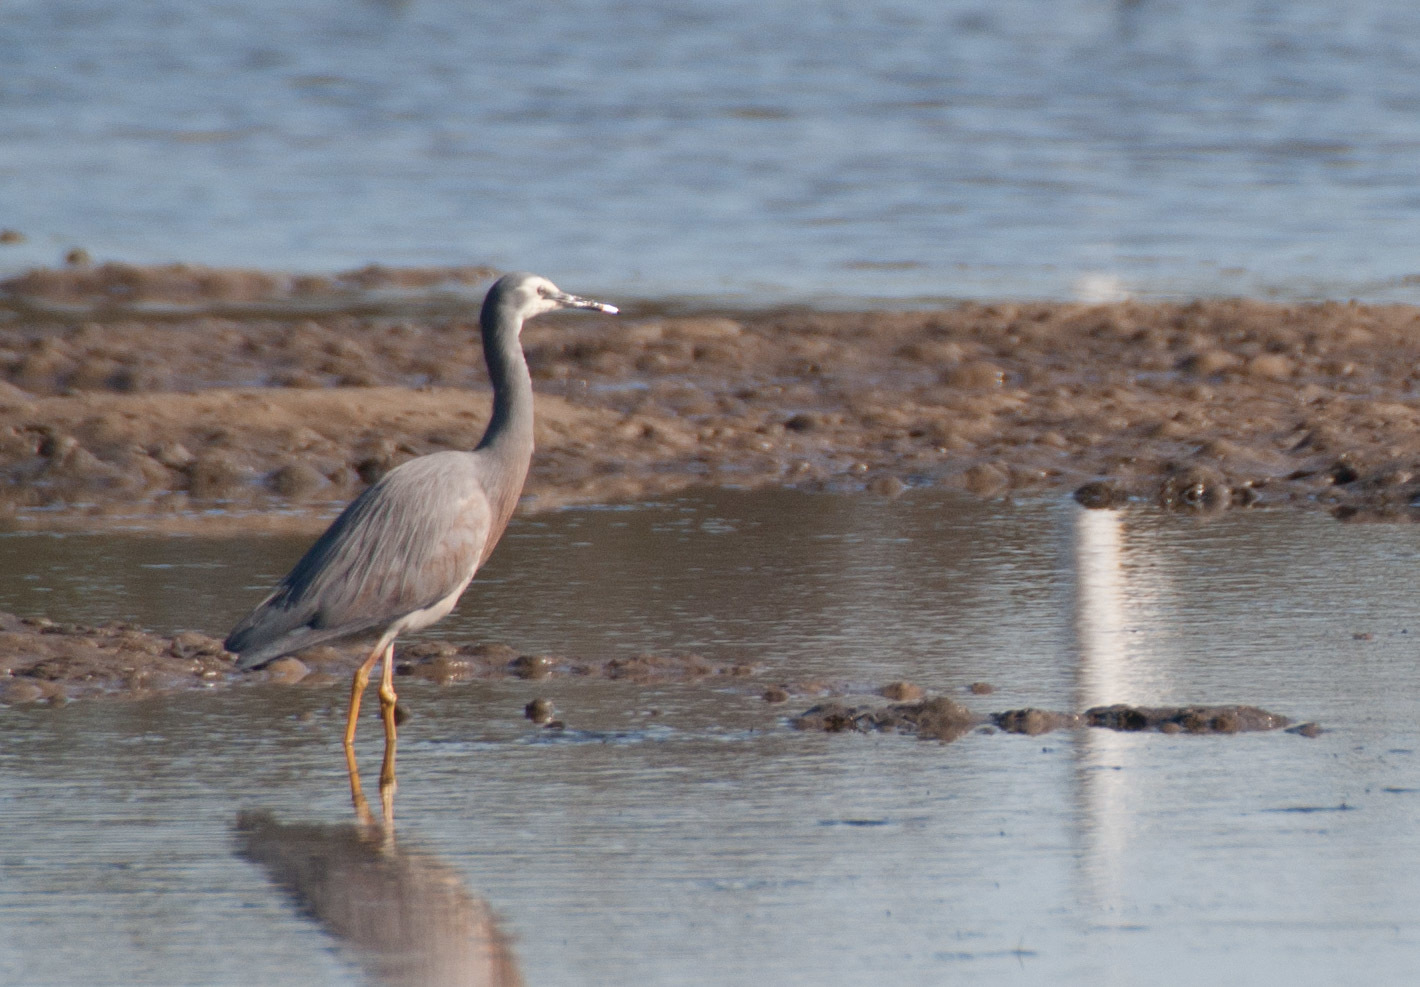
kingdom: Animalia
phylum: Chordata
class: Aves
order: Pelecaniformes
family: Ardeidae
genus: Egretta
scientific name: Egretta novaehollandiae
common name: White-faced heron
